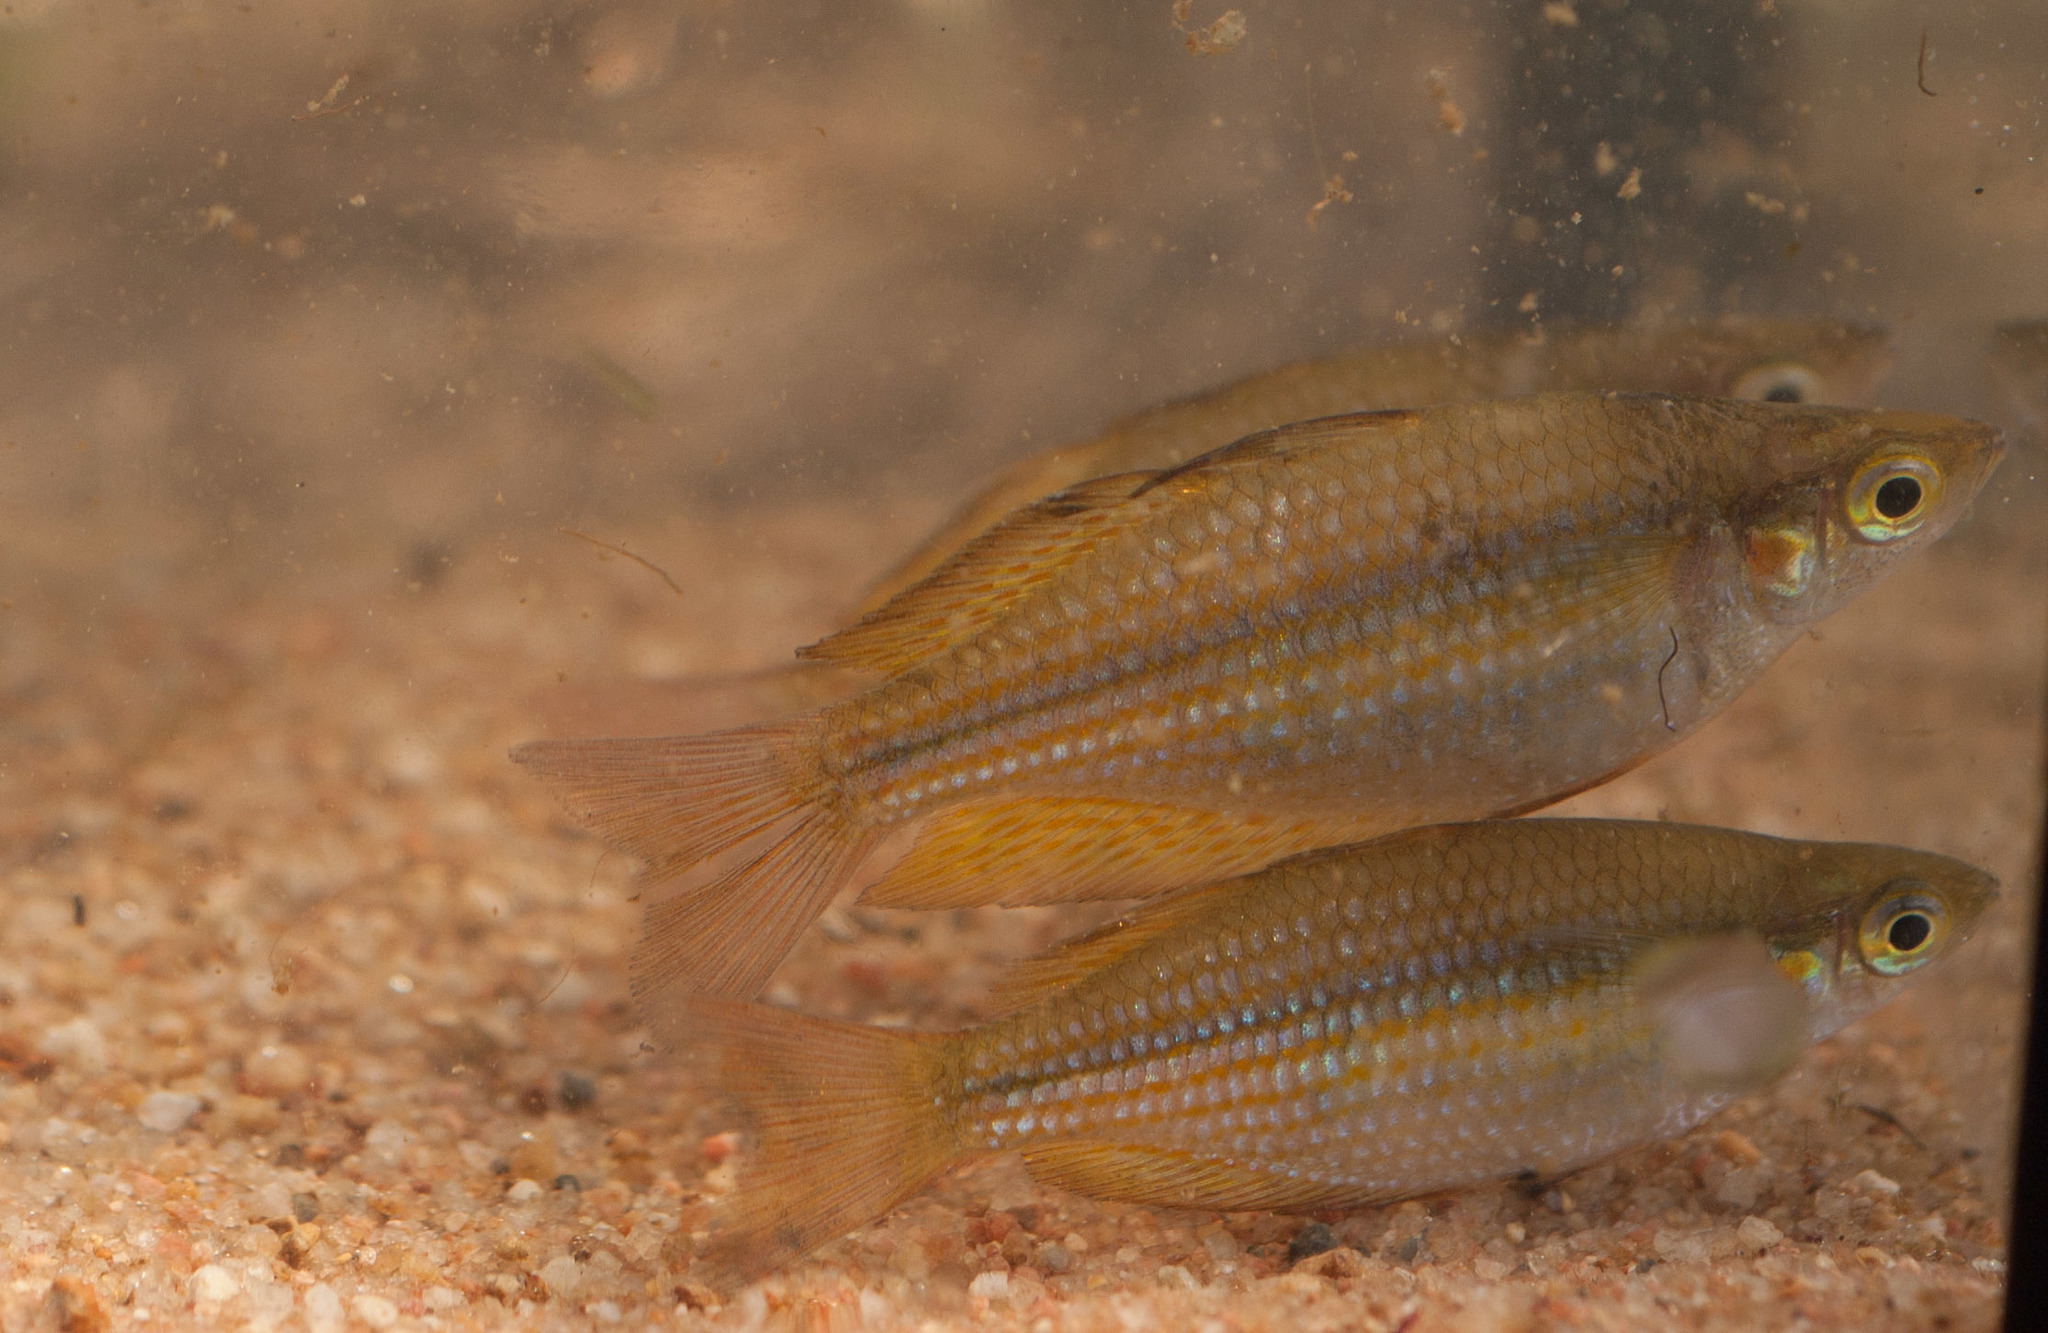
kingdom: Animalia
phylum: Chordata
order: Atheriniformes
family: Melanotaeniidae
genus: Melanotaenia
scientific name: Melanotaenia splendida
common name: Checkered rainbowfish
